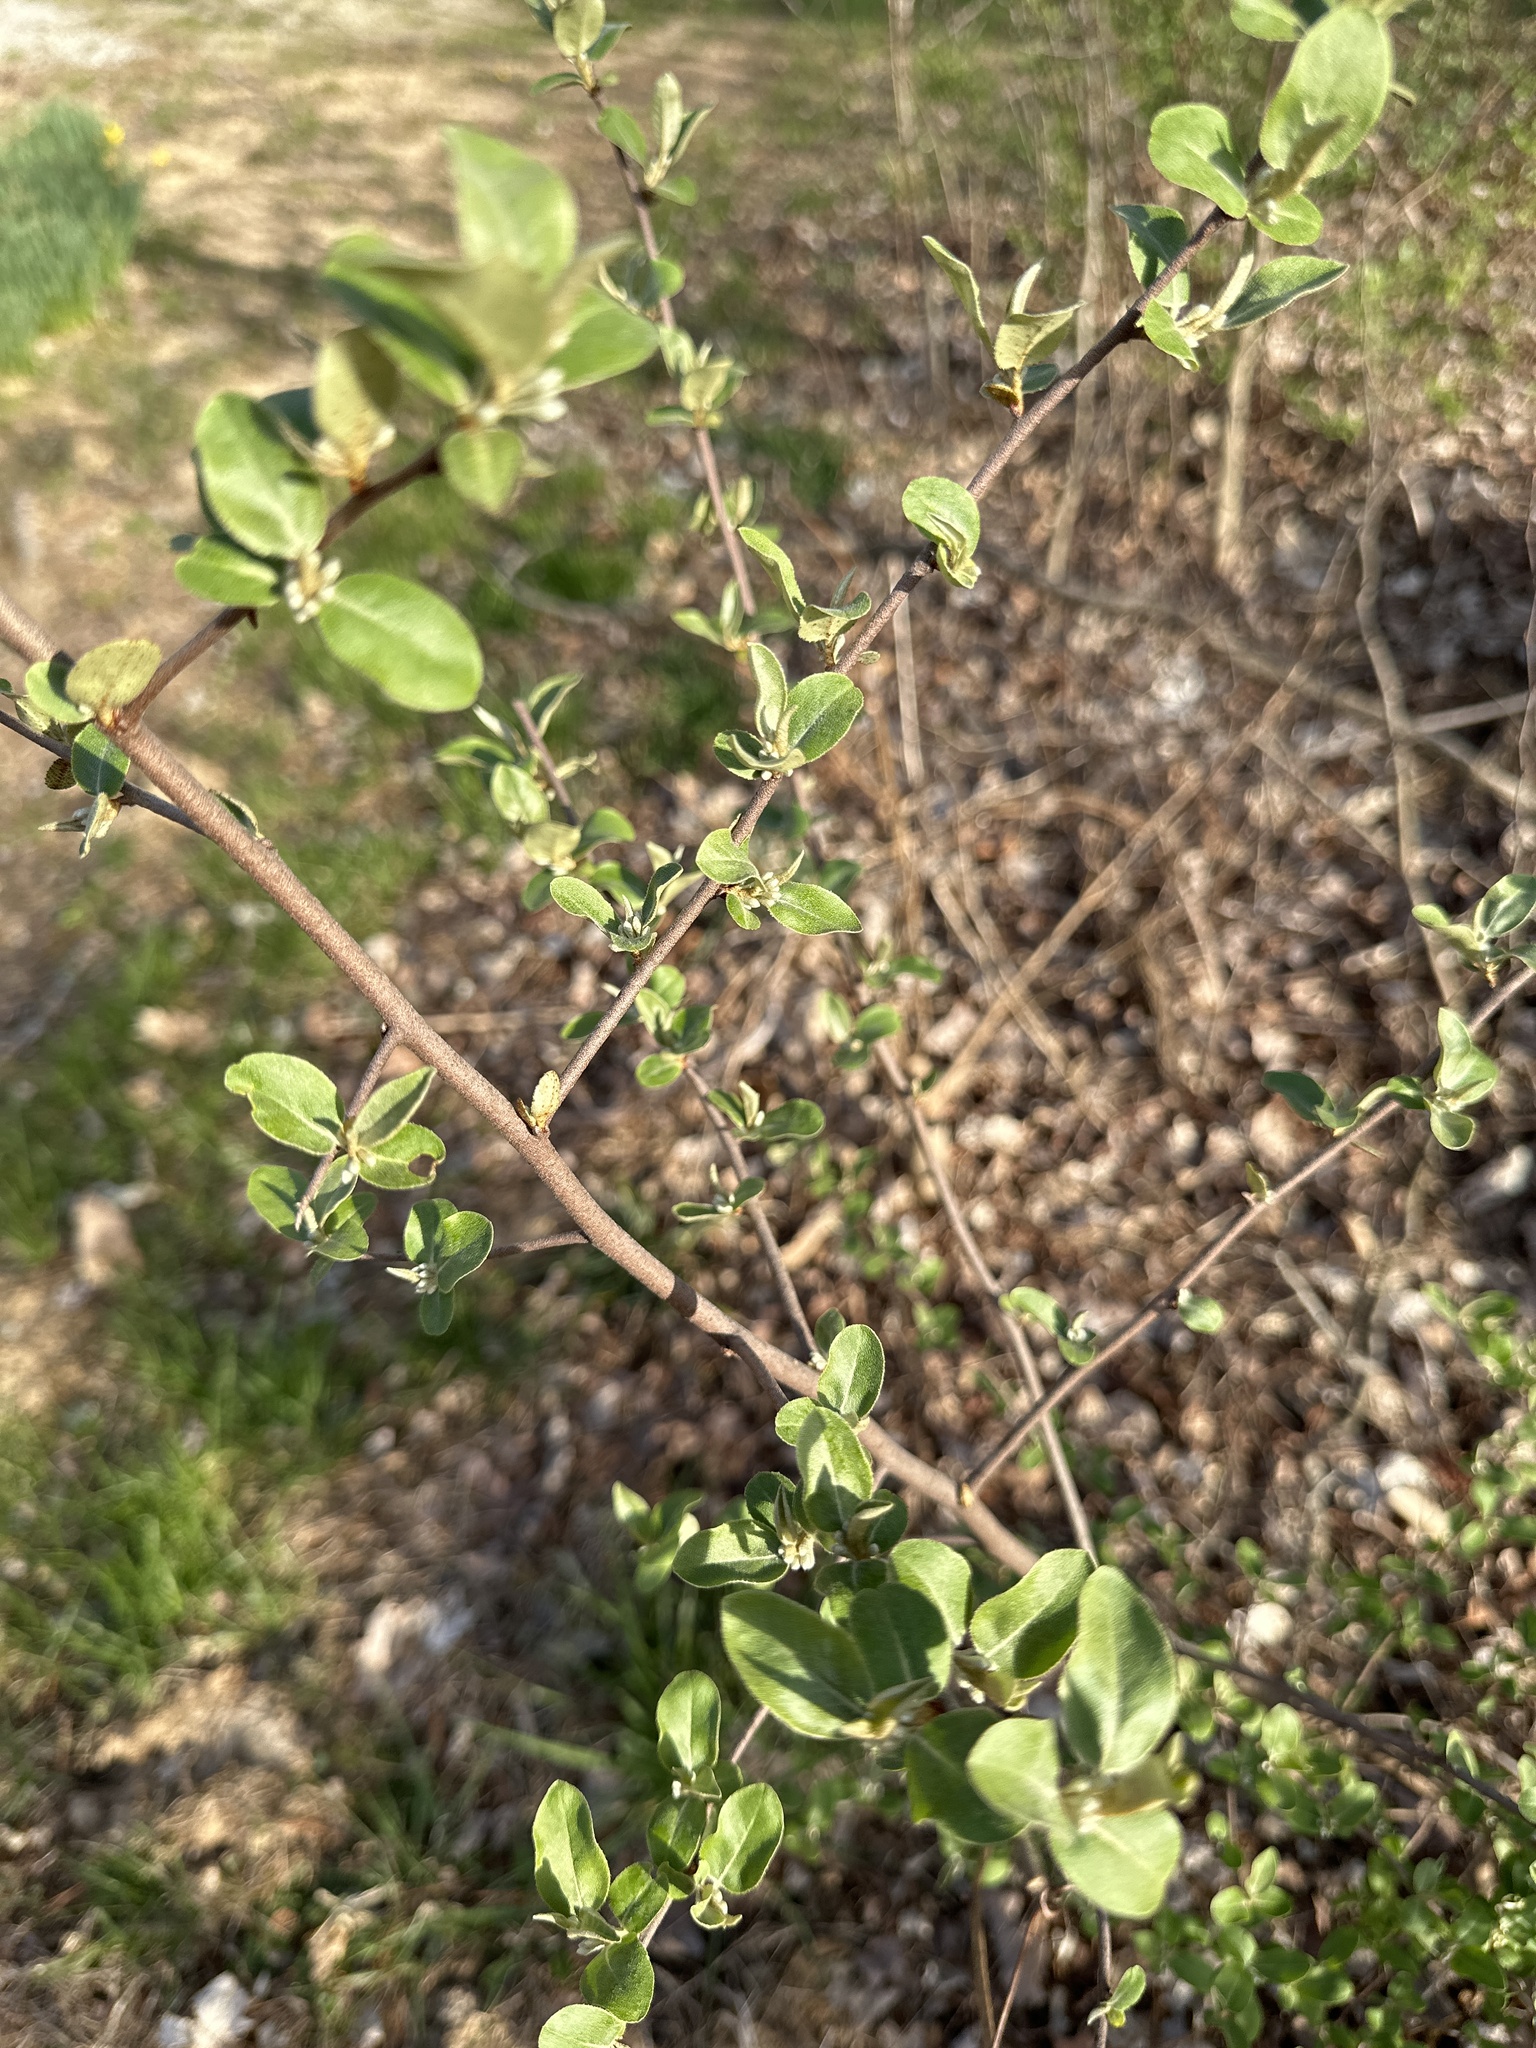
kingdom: Plantae
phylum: Tracheophyta
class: Magnoliopsida
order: Rosales
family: Elaeagnaceae
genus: Elaeagnus
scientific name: Elaeagnus umbellata
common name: Autumn olive
